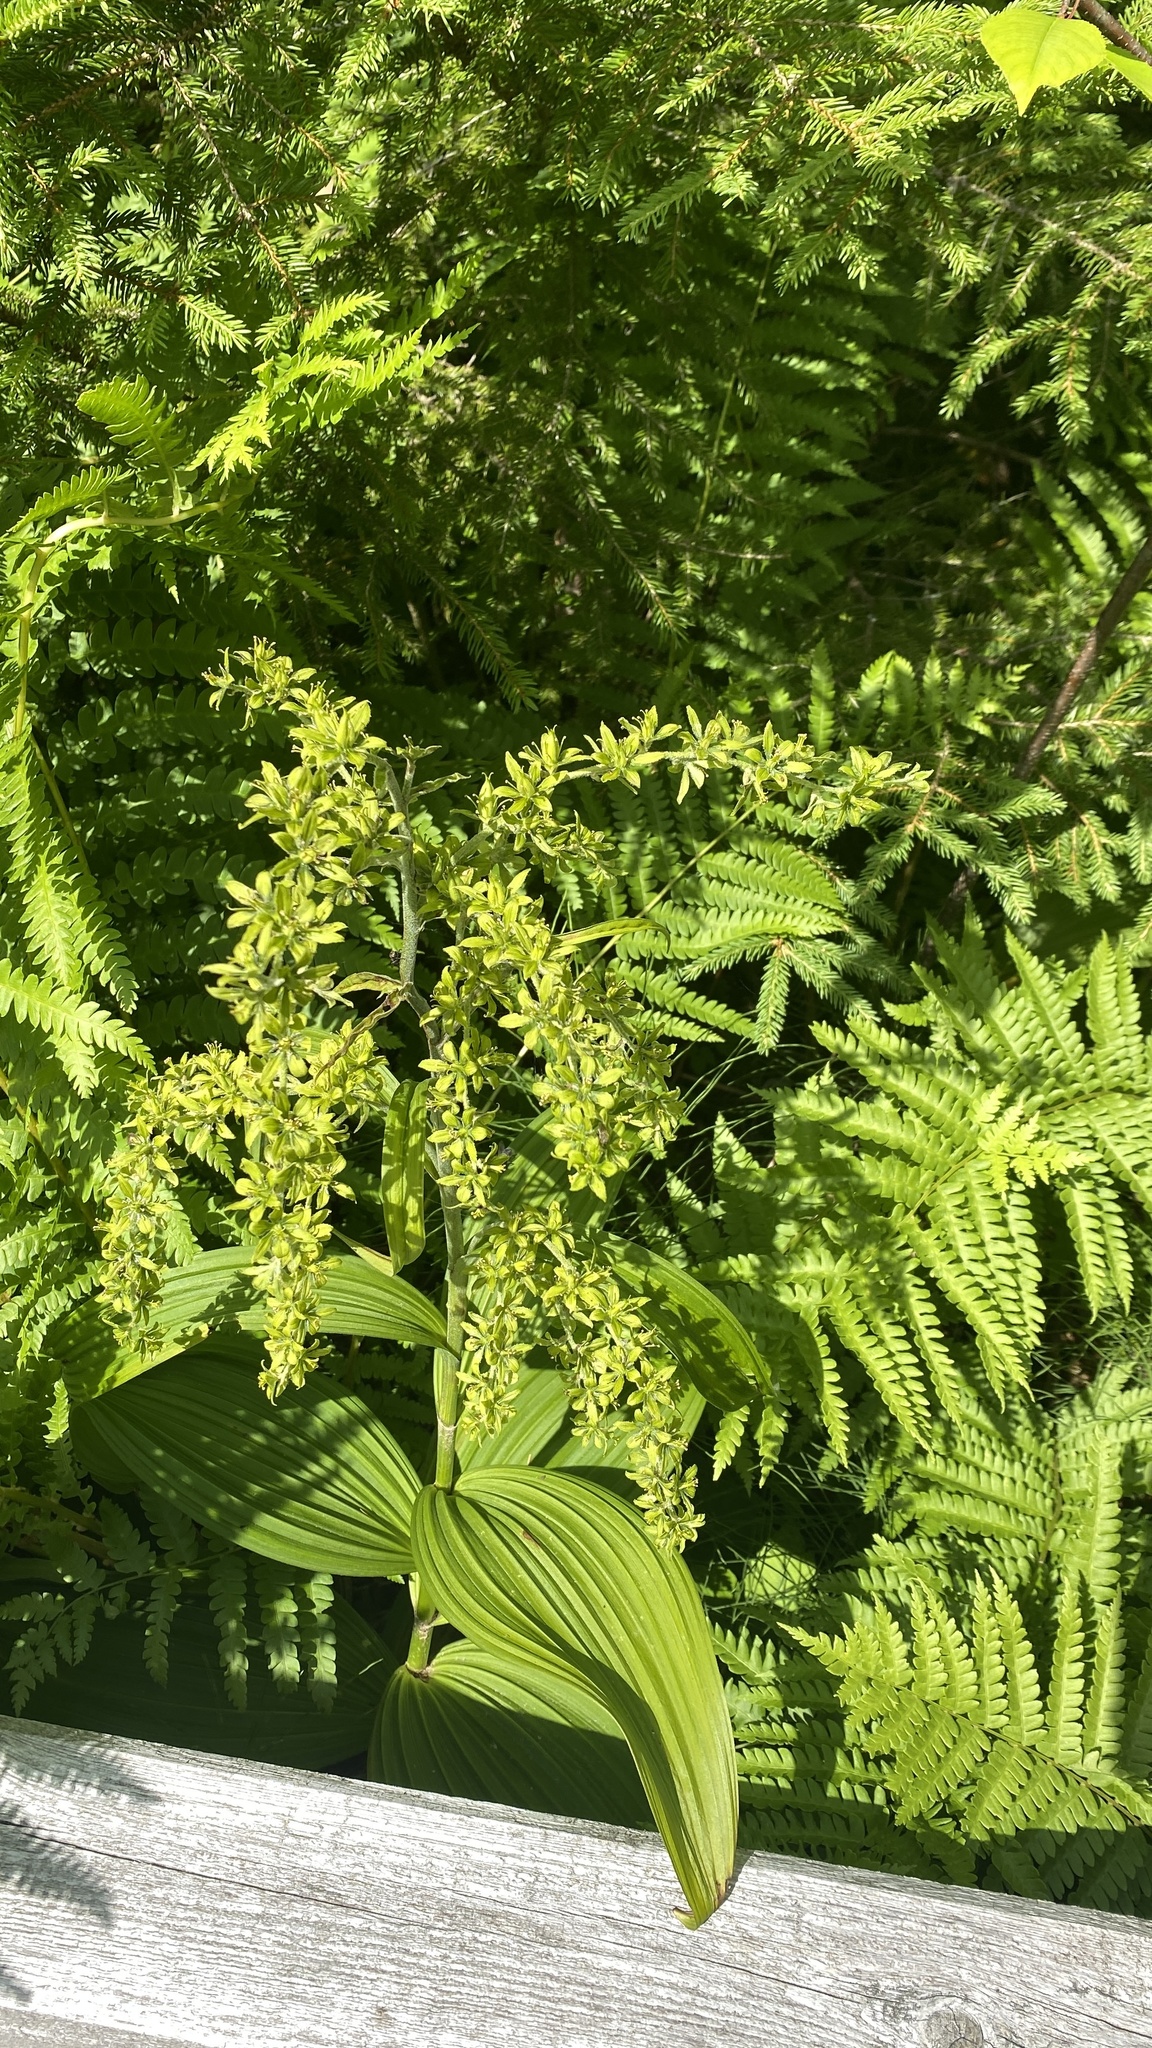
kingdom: Plantae
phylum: Tracheophyta
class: Liliopsida
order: Liliales
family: Melanthiaceae
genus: Veratrum
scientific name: Veratrum viride
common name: American false hellebore
